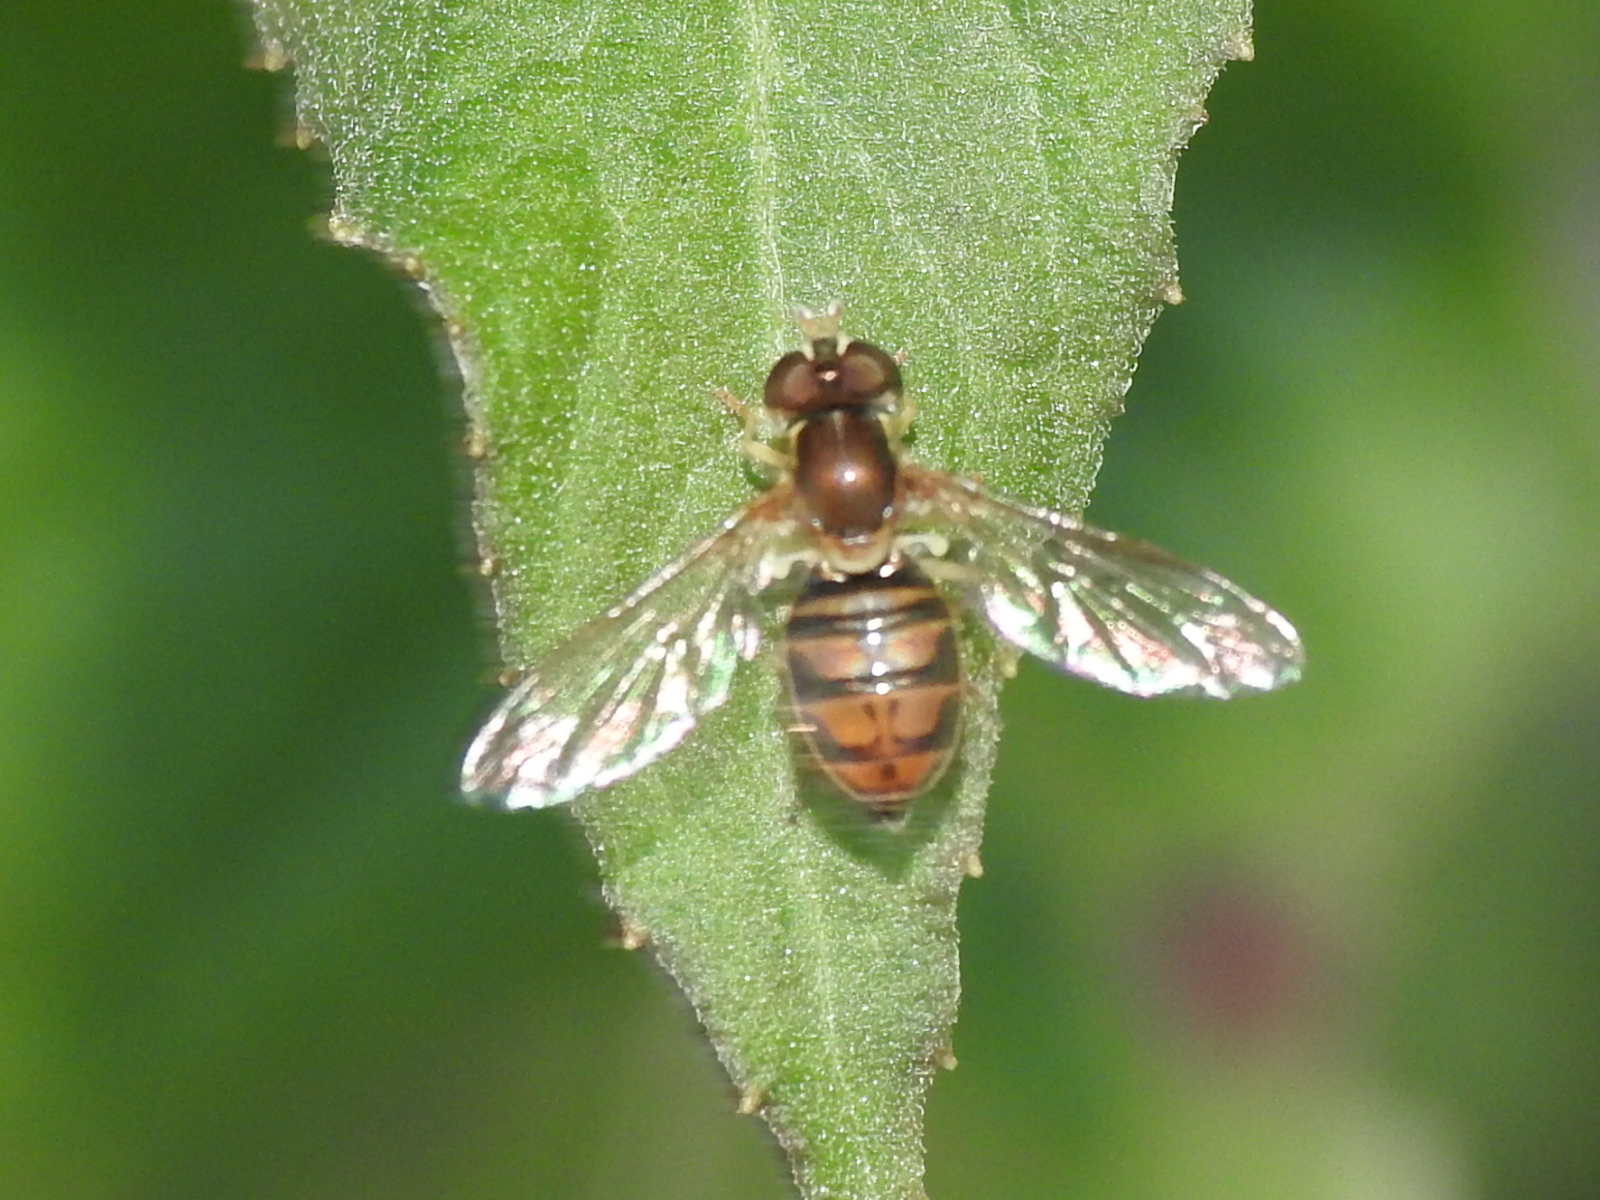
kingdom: Animalia
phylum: Arthropoda
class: Insecta
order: Diptera
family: Syrphidae
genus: Toxomerus
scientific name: Toxomerus marginatus
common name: Syrphid fly
